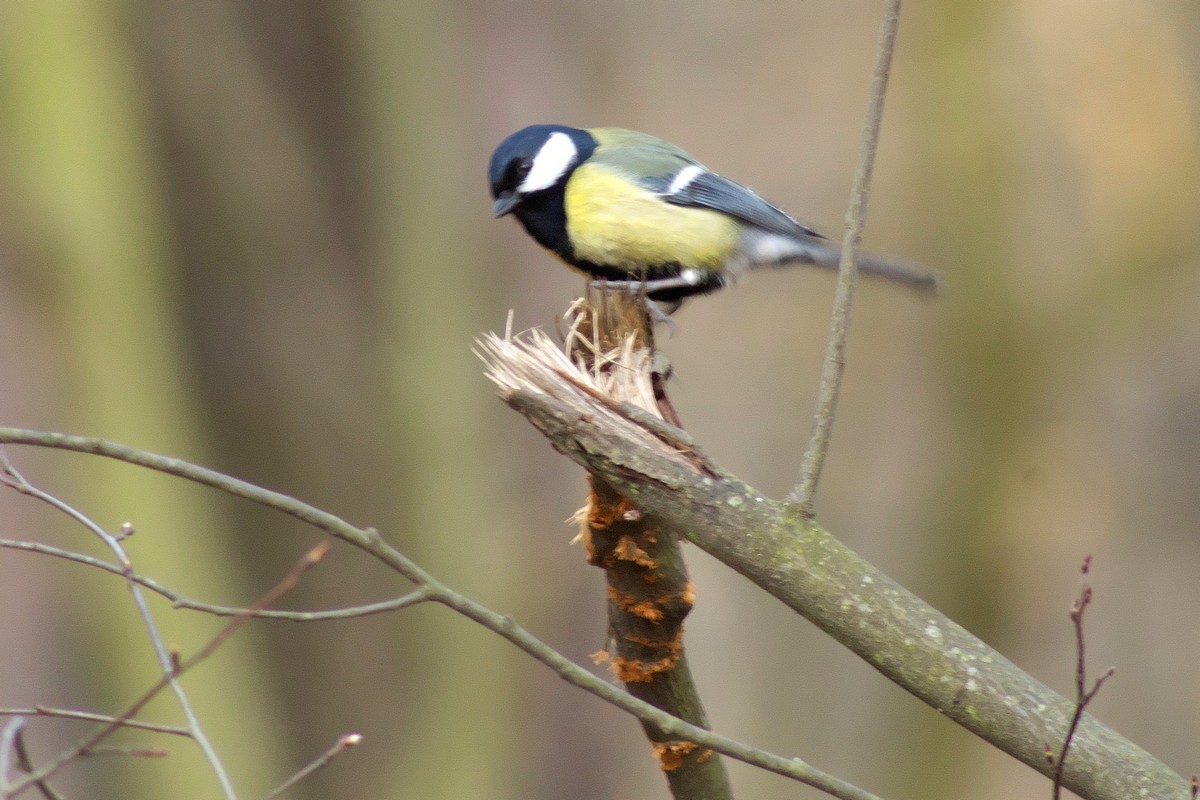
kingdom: Animalia
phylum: Chordata
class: Aves
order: Passeriformes
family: Paridae
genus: Parus
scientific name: Parus major
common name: Great tit
